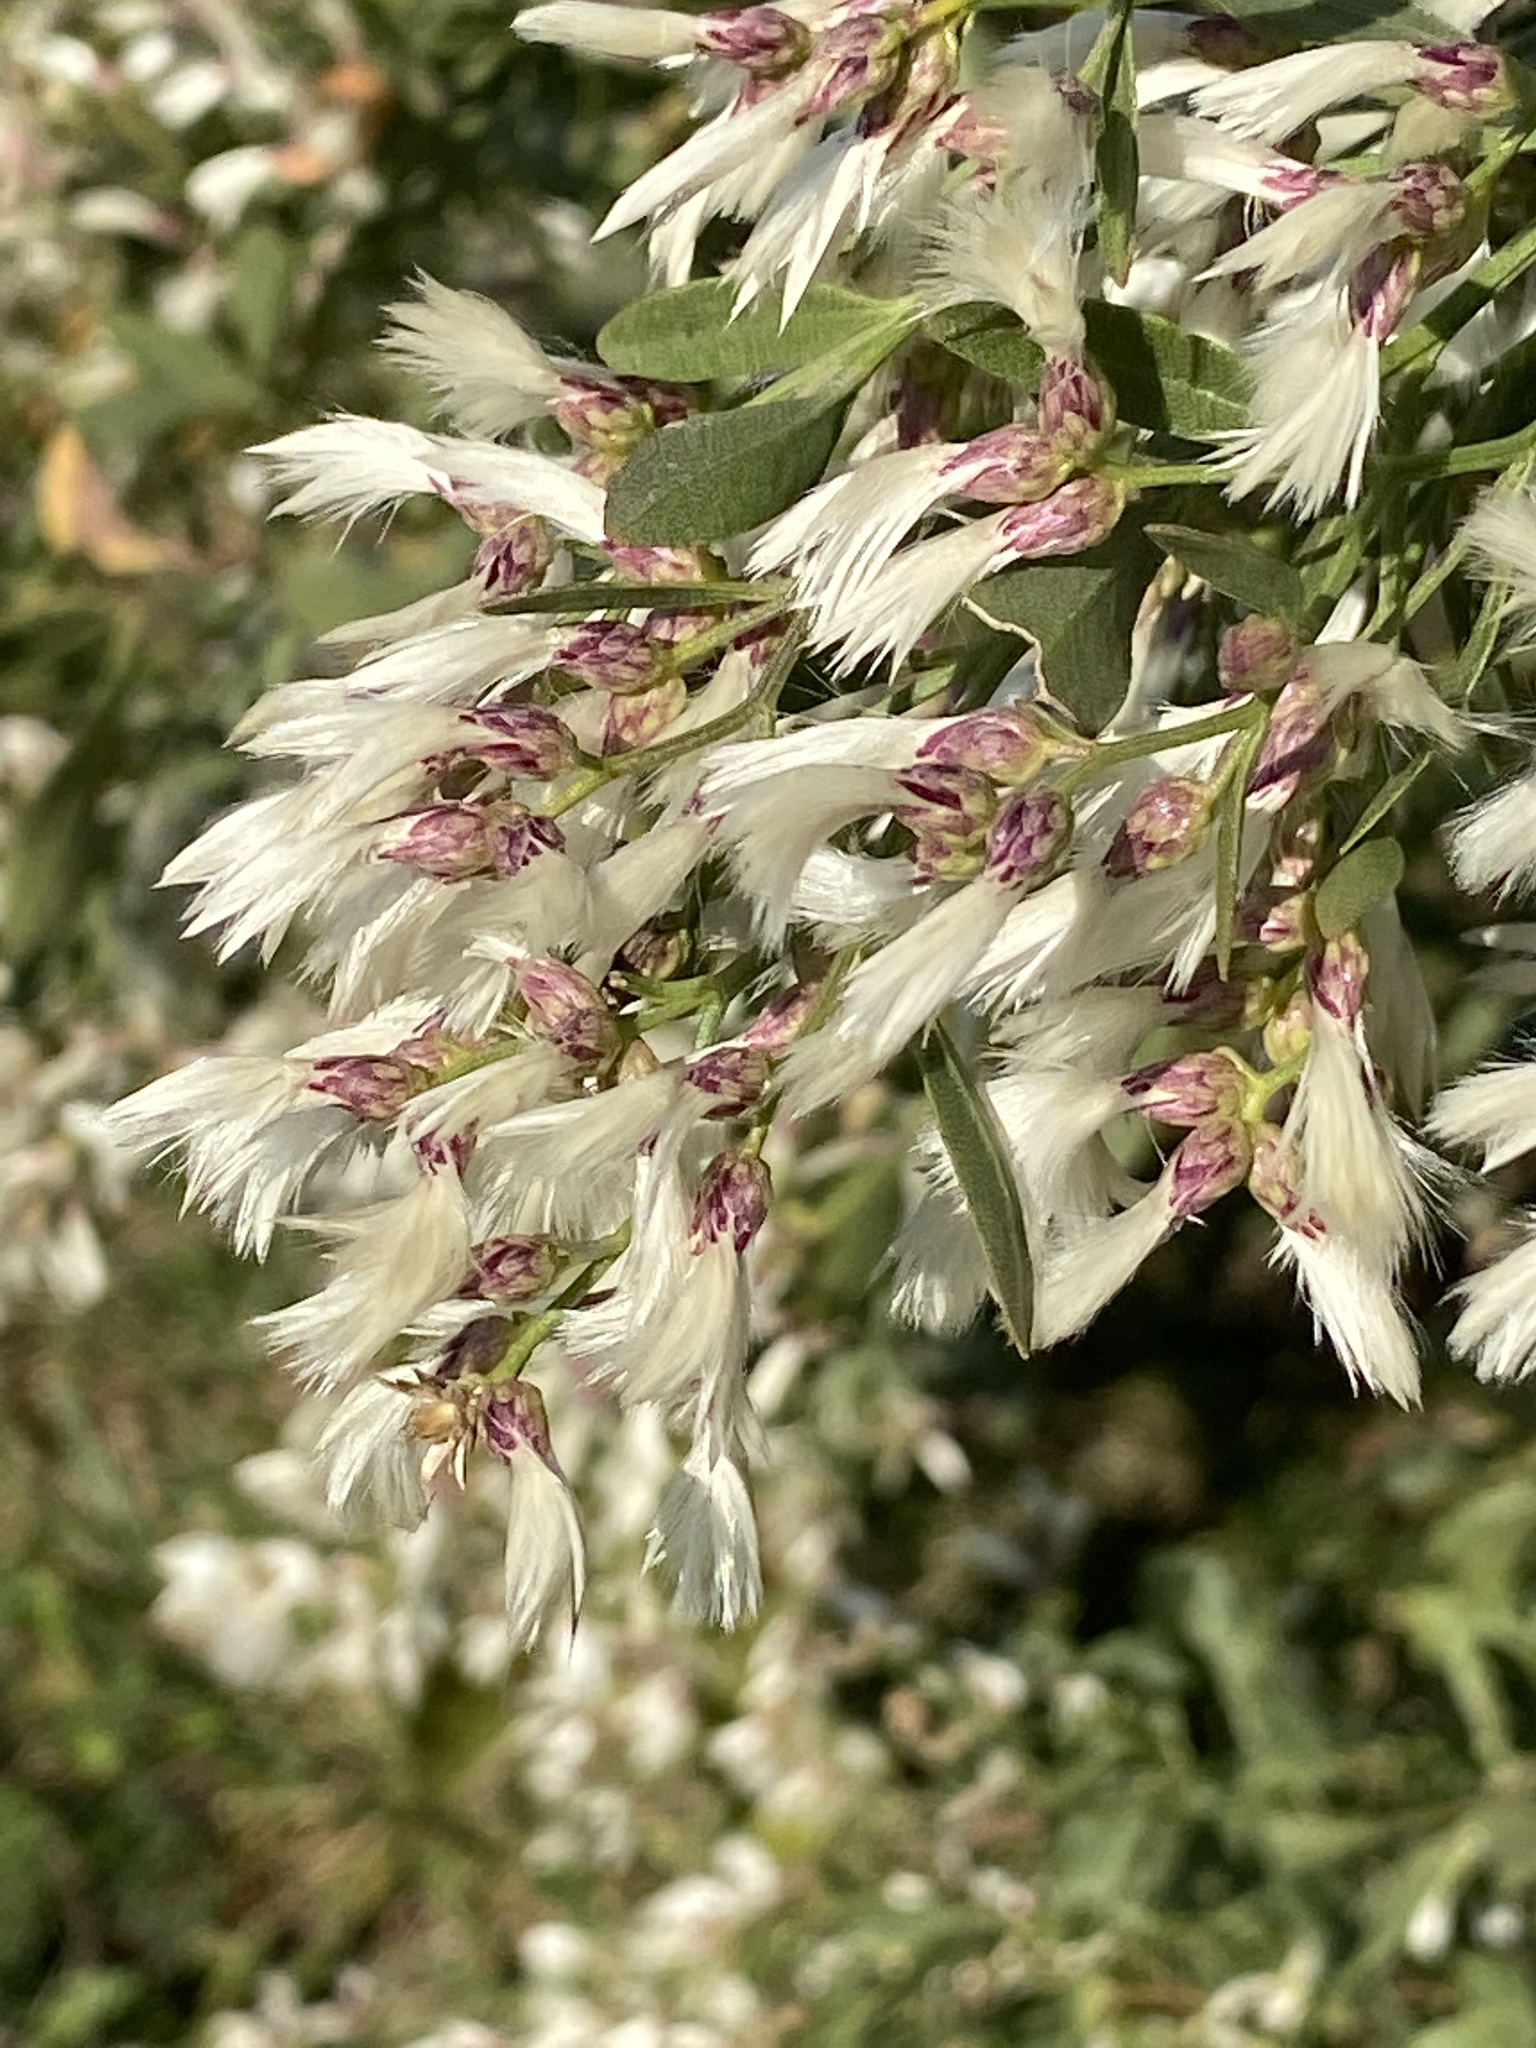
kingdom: Plantae
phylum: Tracheophyta
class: Magnoliopsida
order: Asterales
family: Asteraceae
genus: Baccharis
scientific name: Baccharis halimifolia
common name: Eastern baccharis
